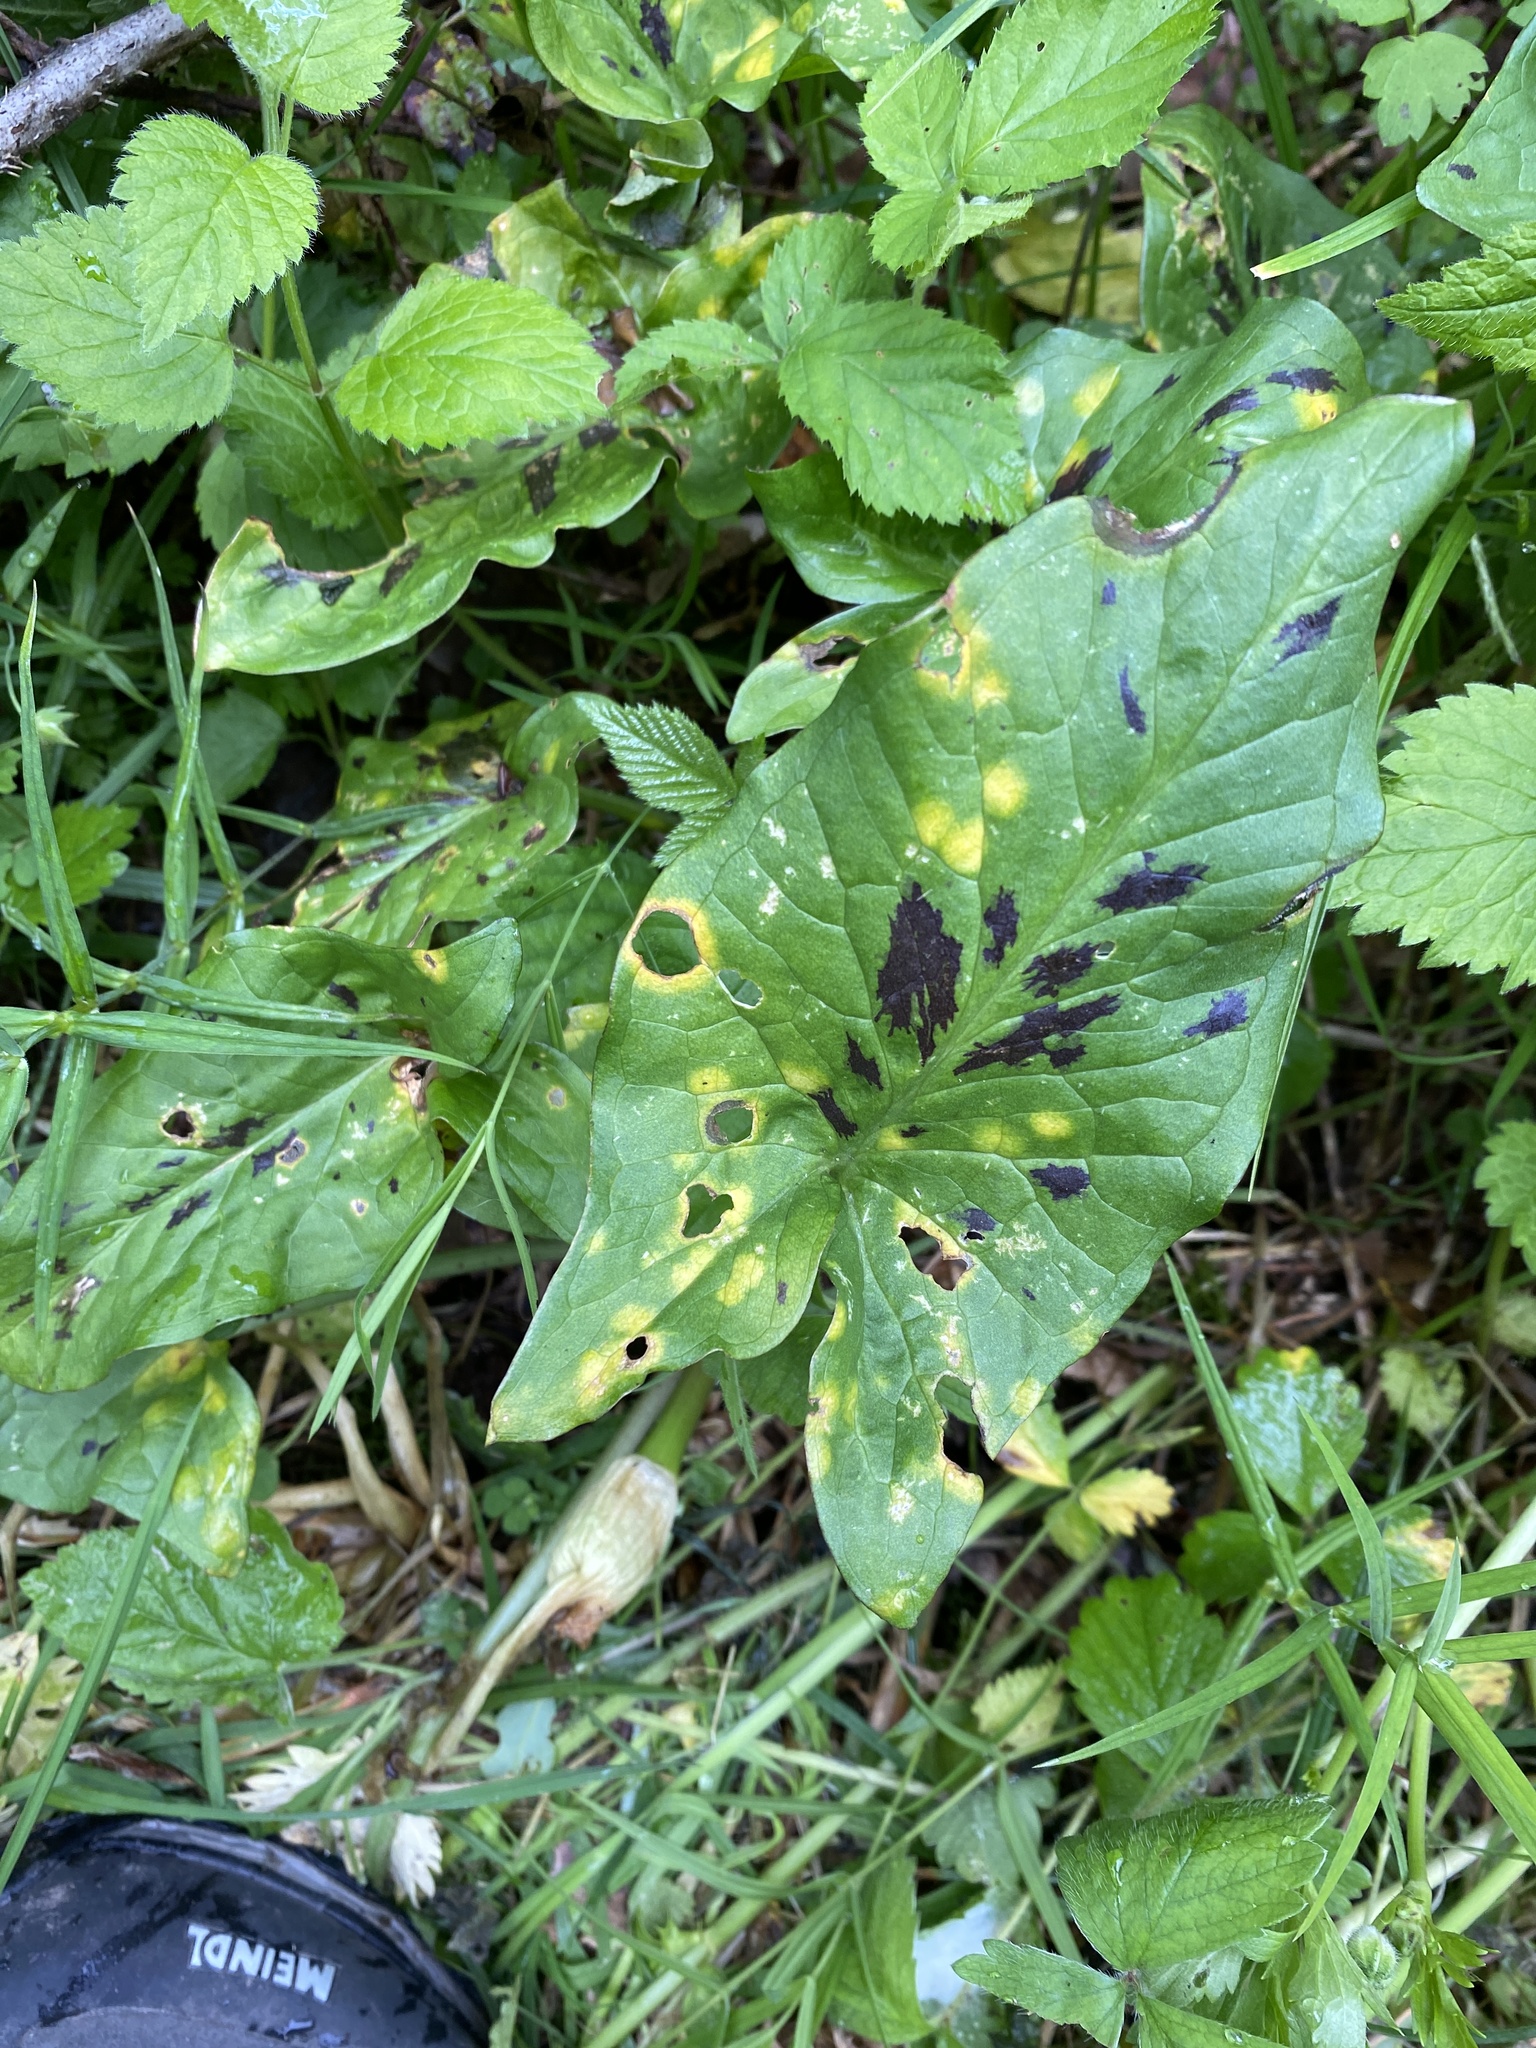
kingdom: Plantae
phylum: Tracheophyta
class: Liliopsida
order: Alismatales
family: Araceae
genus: Arum
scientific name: Arum maculatum
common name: Lords-and-ladies
